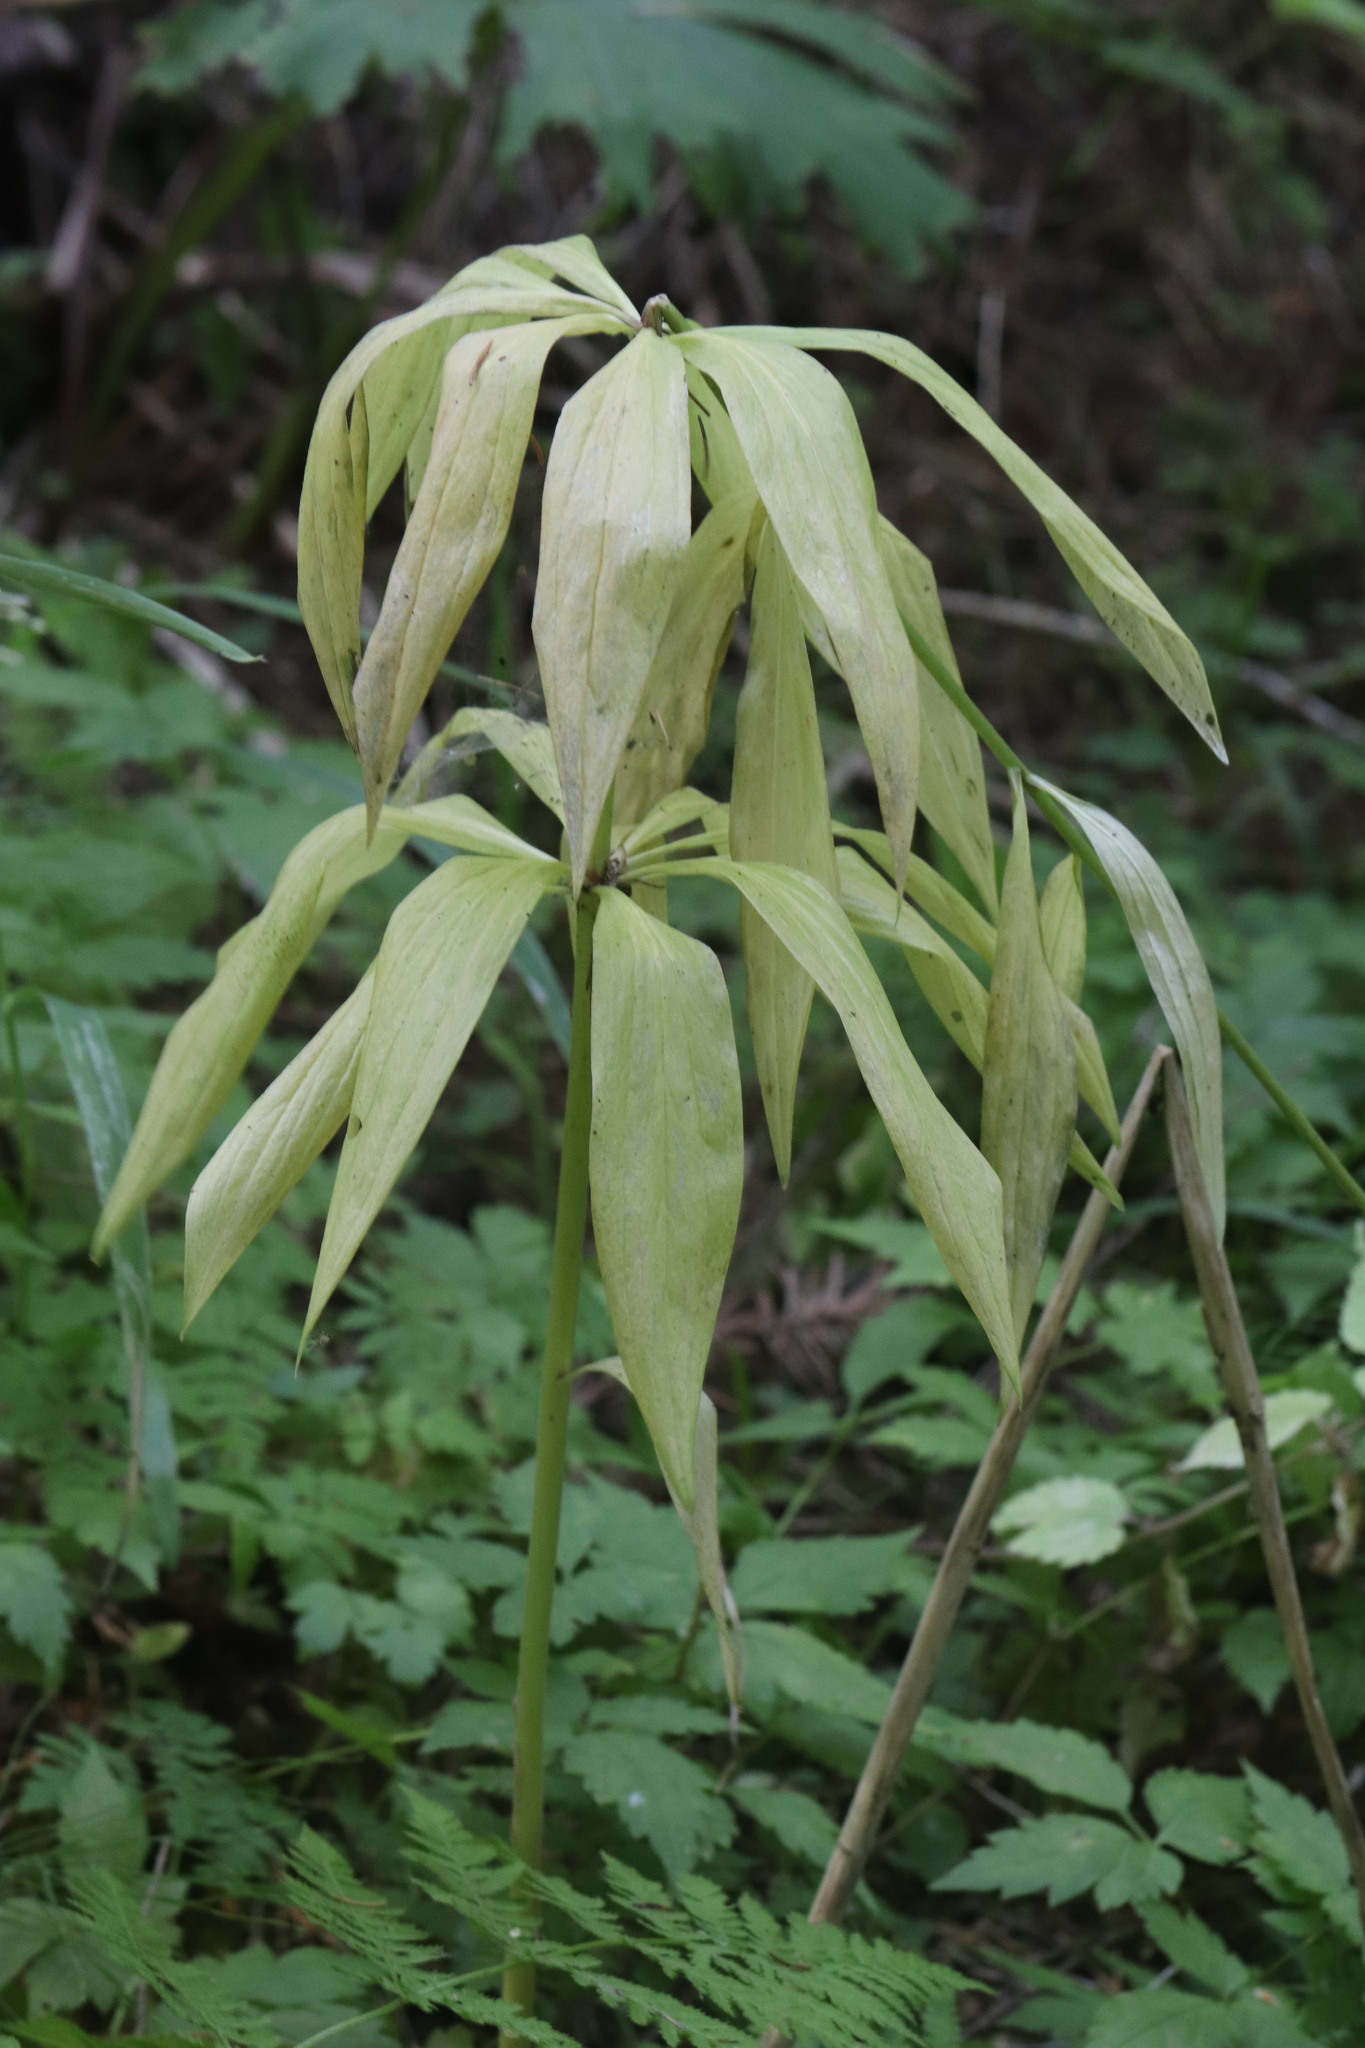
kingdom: Plantae
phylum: Tracheophyta
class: Liliopsida
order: Liliales
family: Liliaceae
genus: Lilium
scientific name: Lilium martagon
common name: Martagon lily
